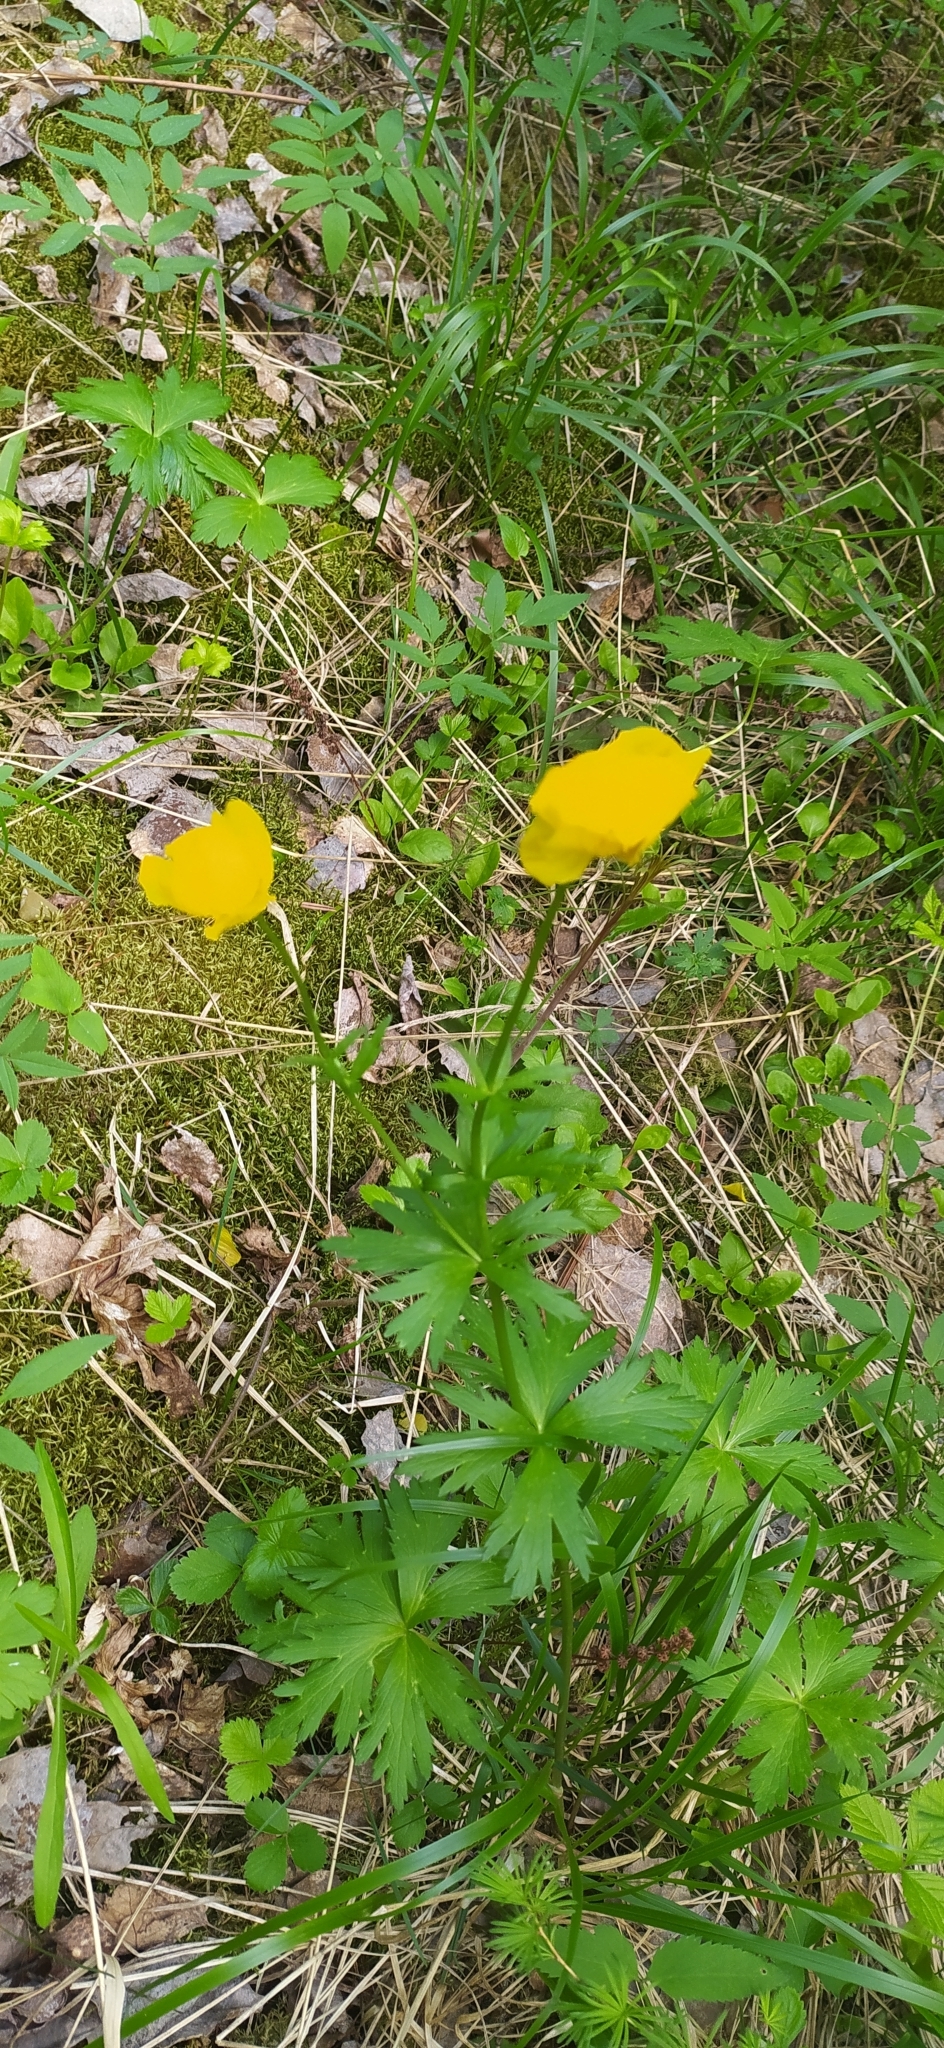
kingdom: Plantae
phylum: Tracheophyta
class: Magnoliopsida
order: Ranunculales
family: Ranunculaceae
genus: Trollius
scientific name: Trollius europaeus
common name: European globeflower
